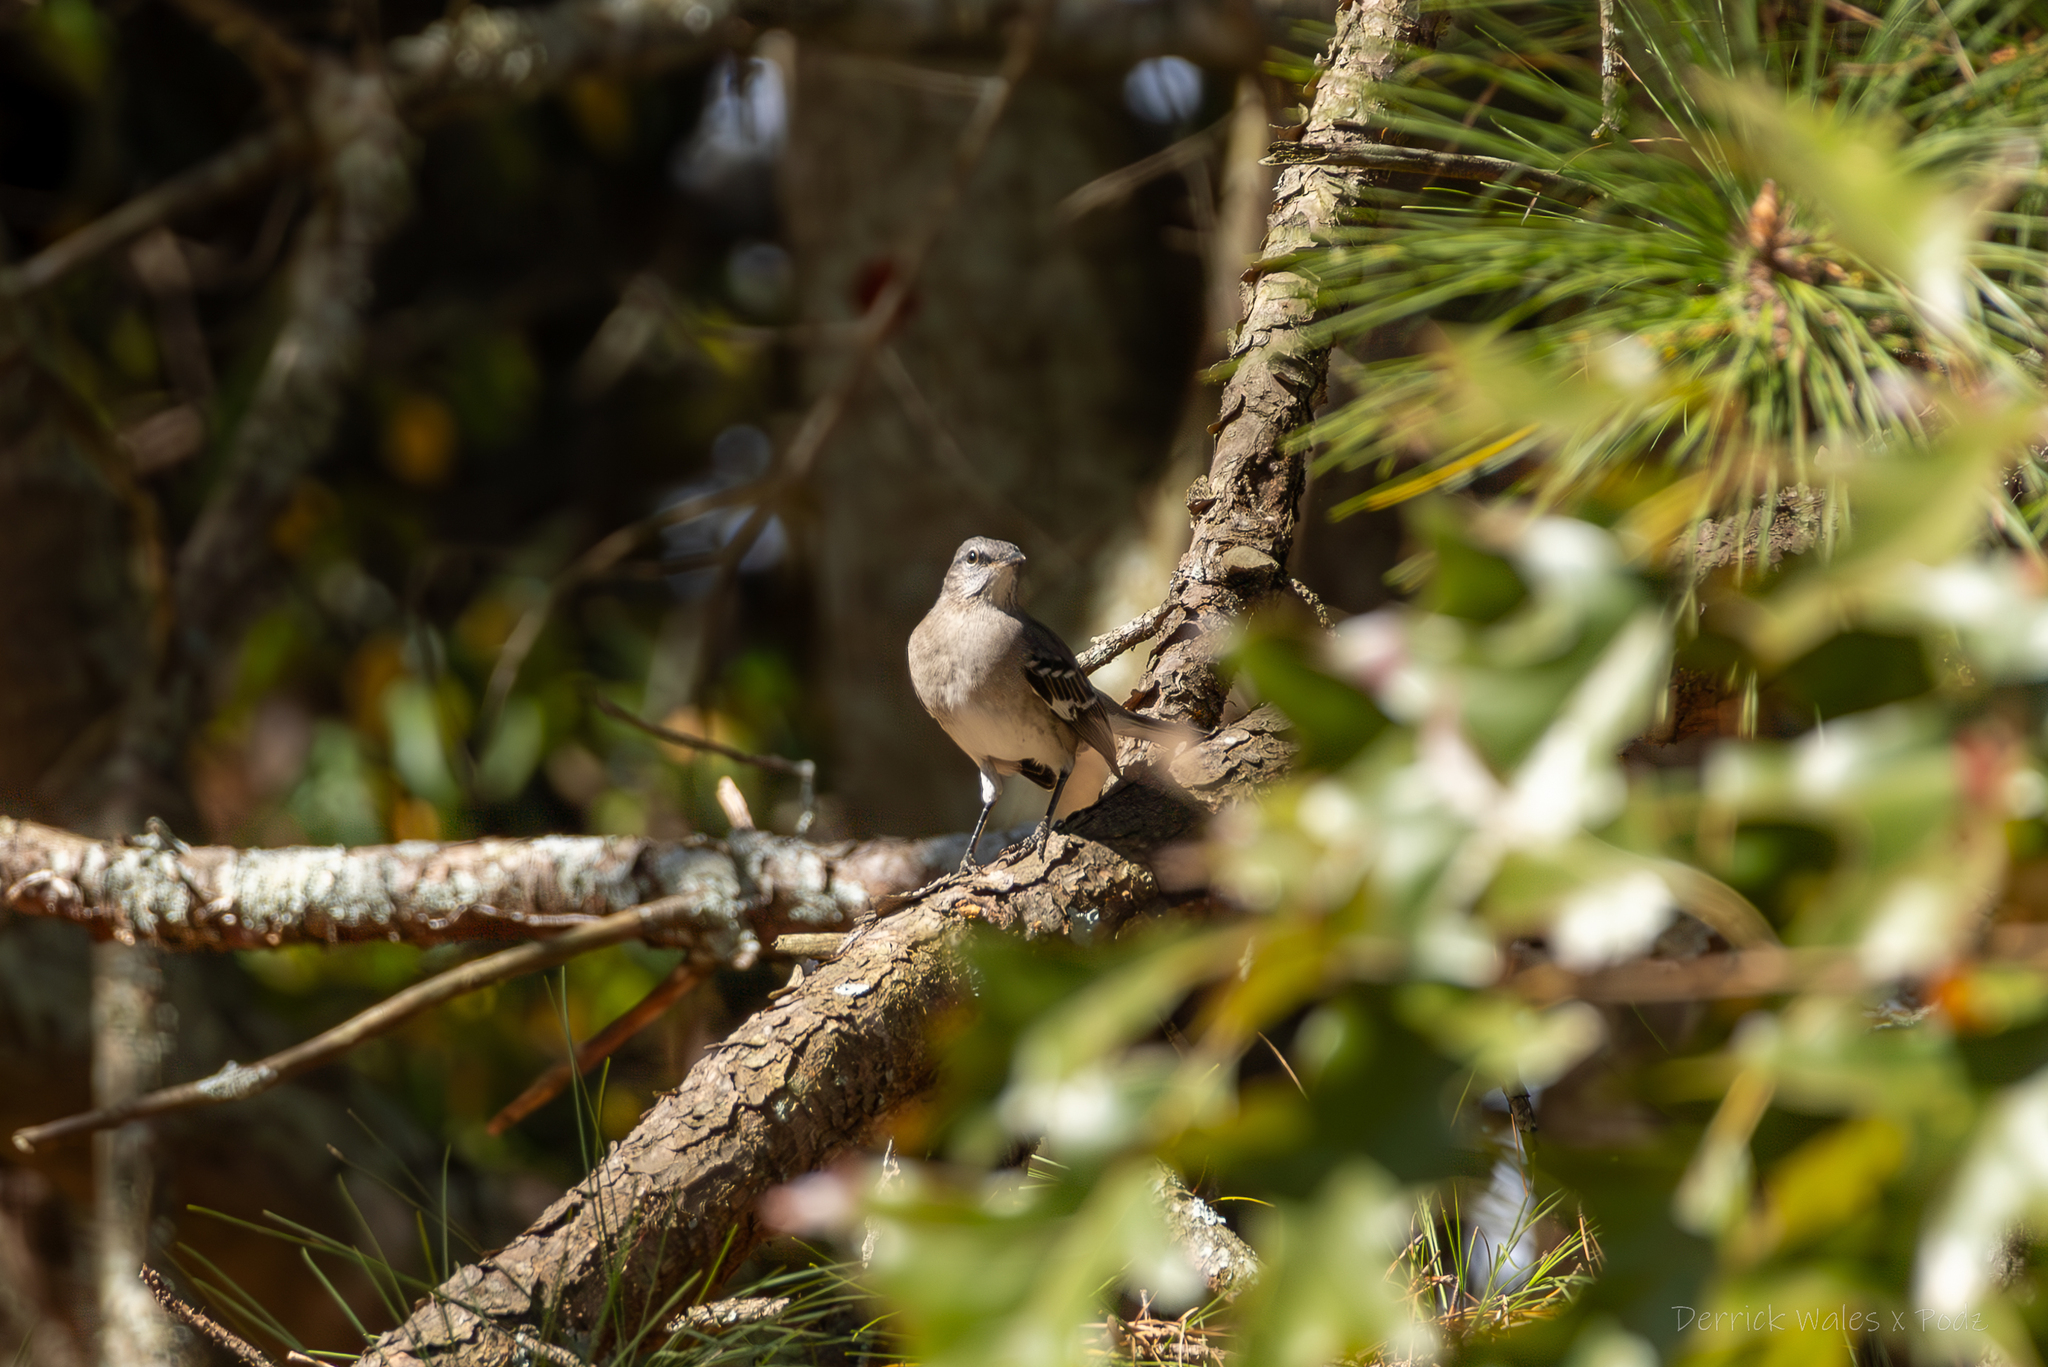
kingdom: Animalia
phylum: Chordata
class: Aves
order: Passeriformes
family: Mimidae
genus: Mimus
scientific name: Mimus polyglottos
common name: Northern mockingbird
